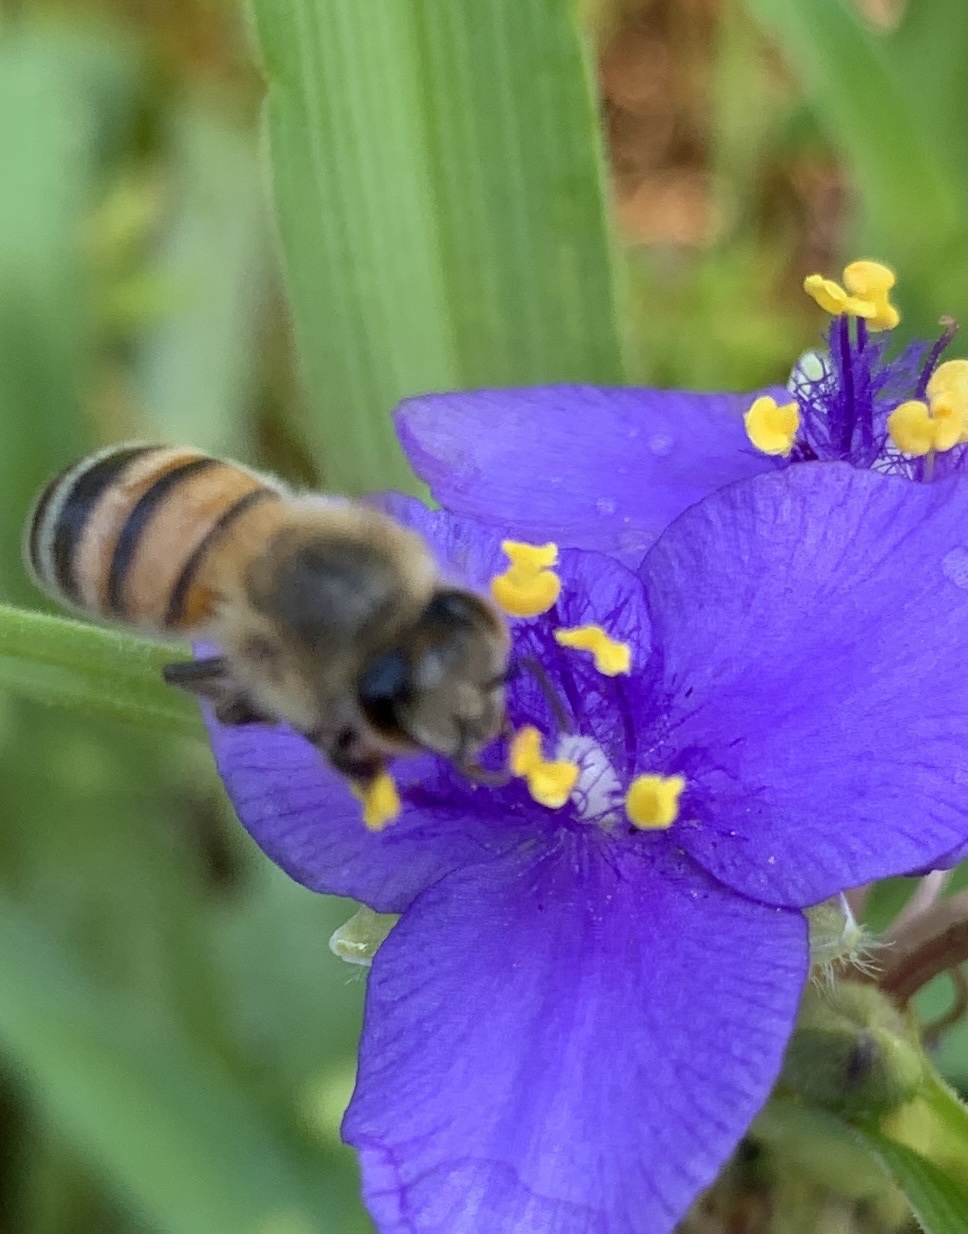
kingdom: Animalia
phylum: Arthropoda
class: Insecta
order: Hymenoptera
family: Apidae
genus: Apis
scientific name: Apis mellifera
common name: Honey bee
